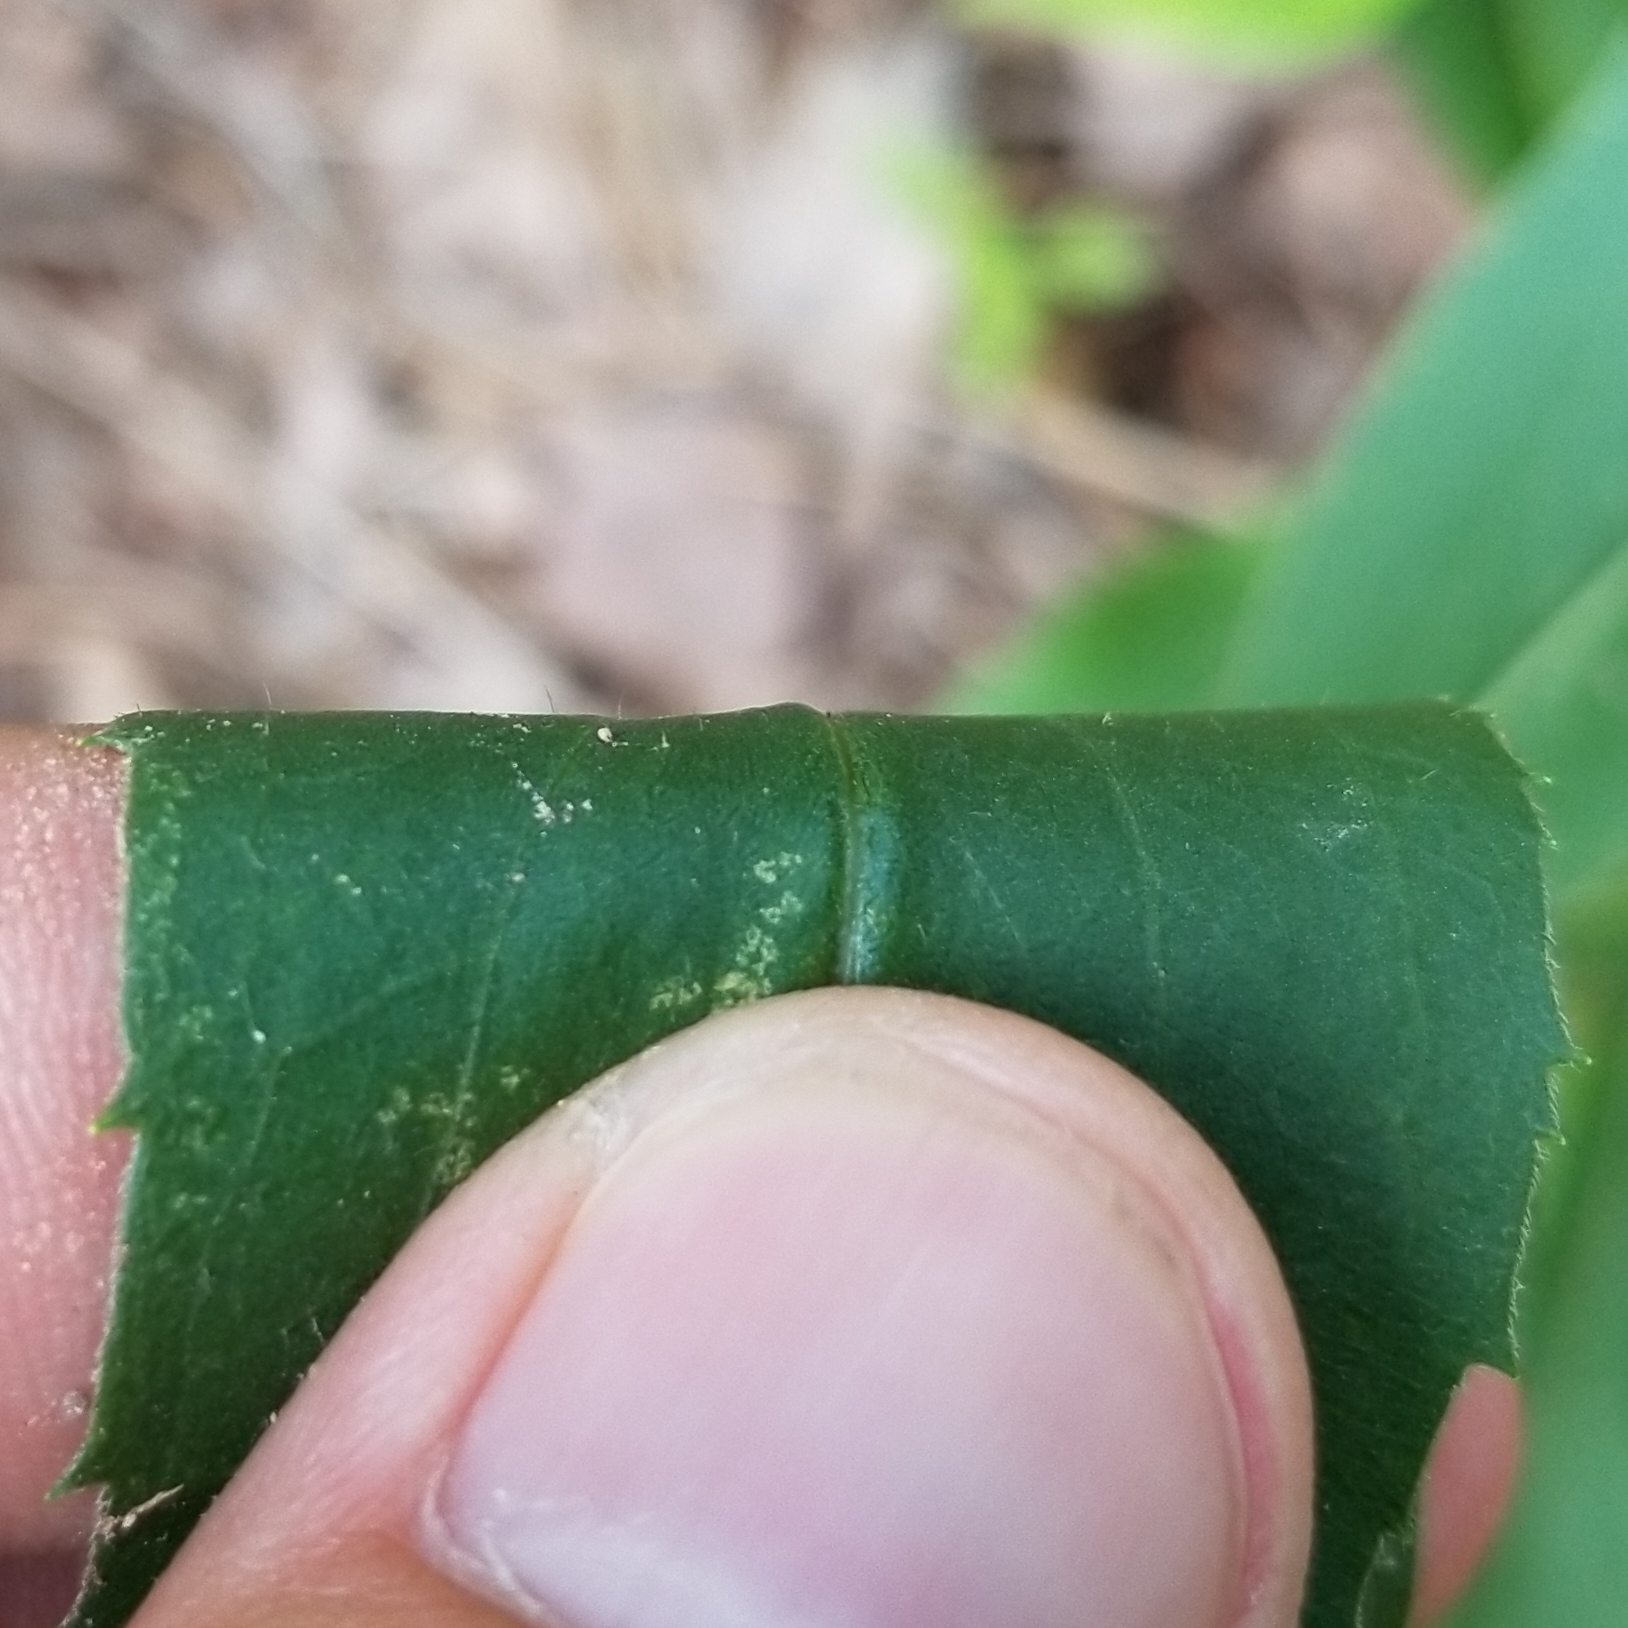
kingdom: Plantae
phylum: Tracheophyta
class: Magnoliopsida
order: Asterales
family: Asteraceae
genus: Solidago
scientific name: Solidago juncea
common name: Early goldenrod
